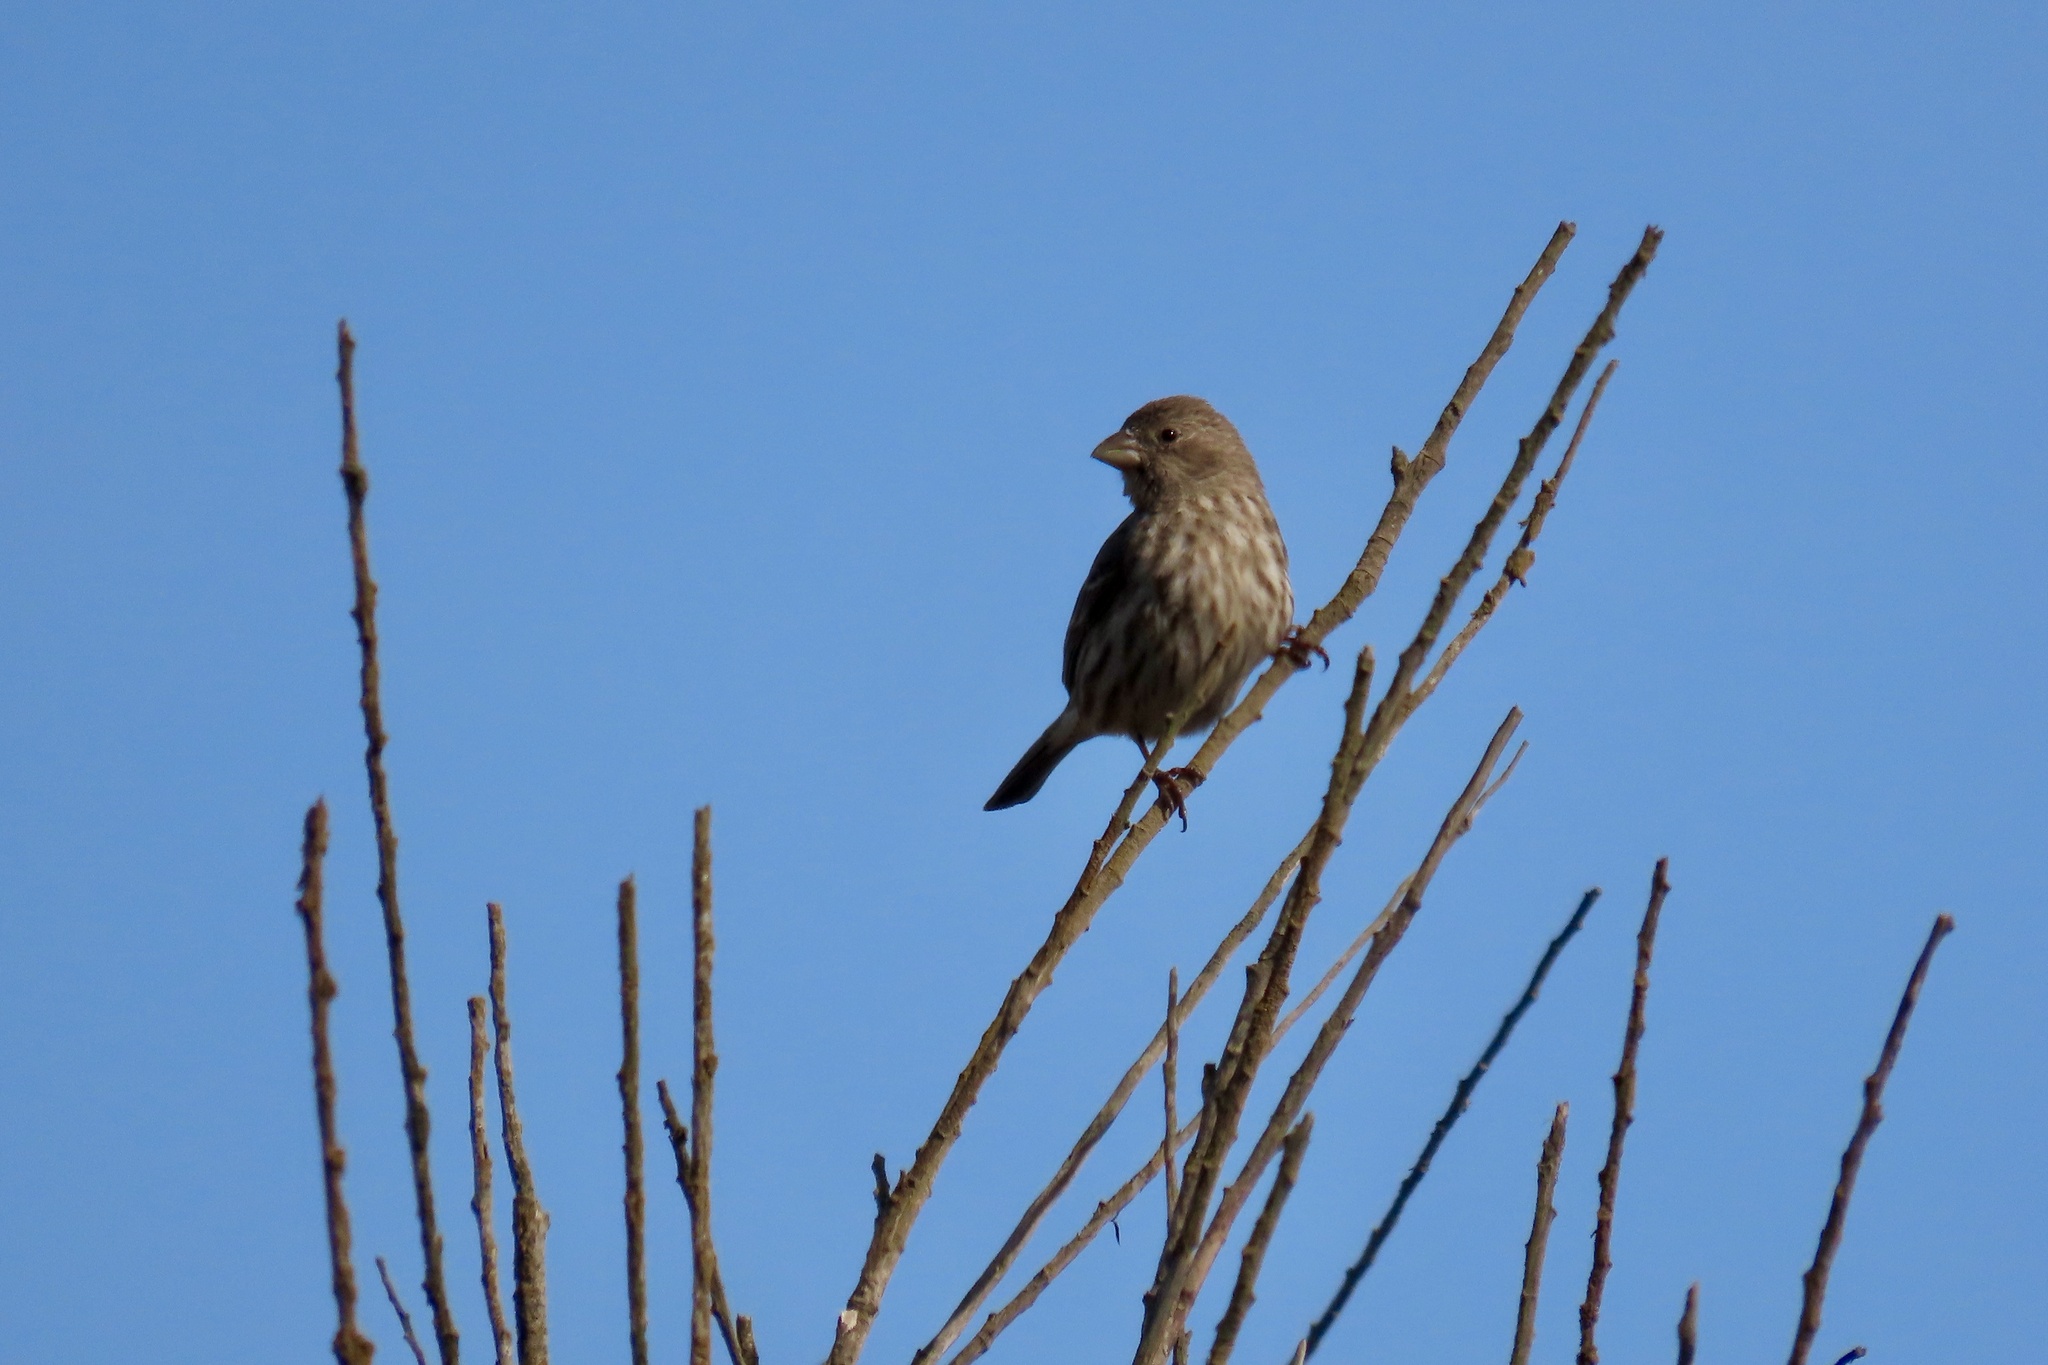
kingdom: Animalia
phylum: Chordata
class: Aves
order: Passeriformes
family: Fringillidae
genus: Haemorhous
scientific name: Haemorhous mexicanus
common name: House finch
